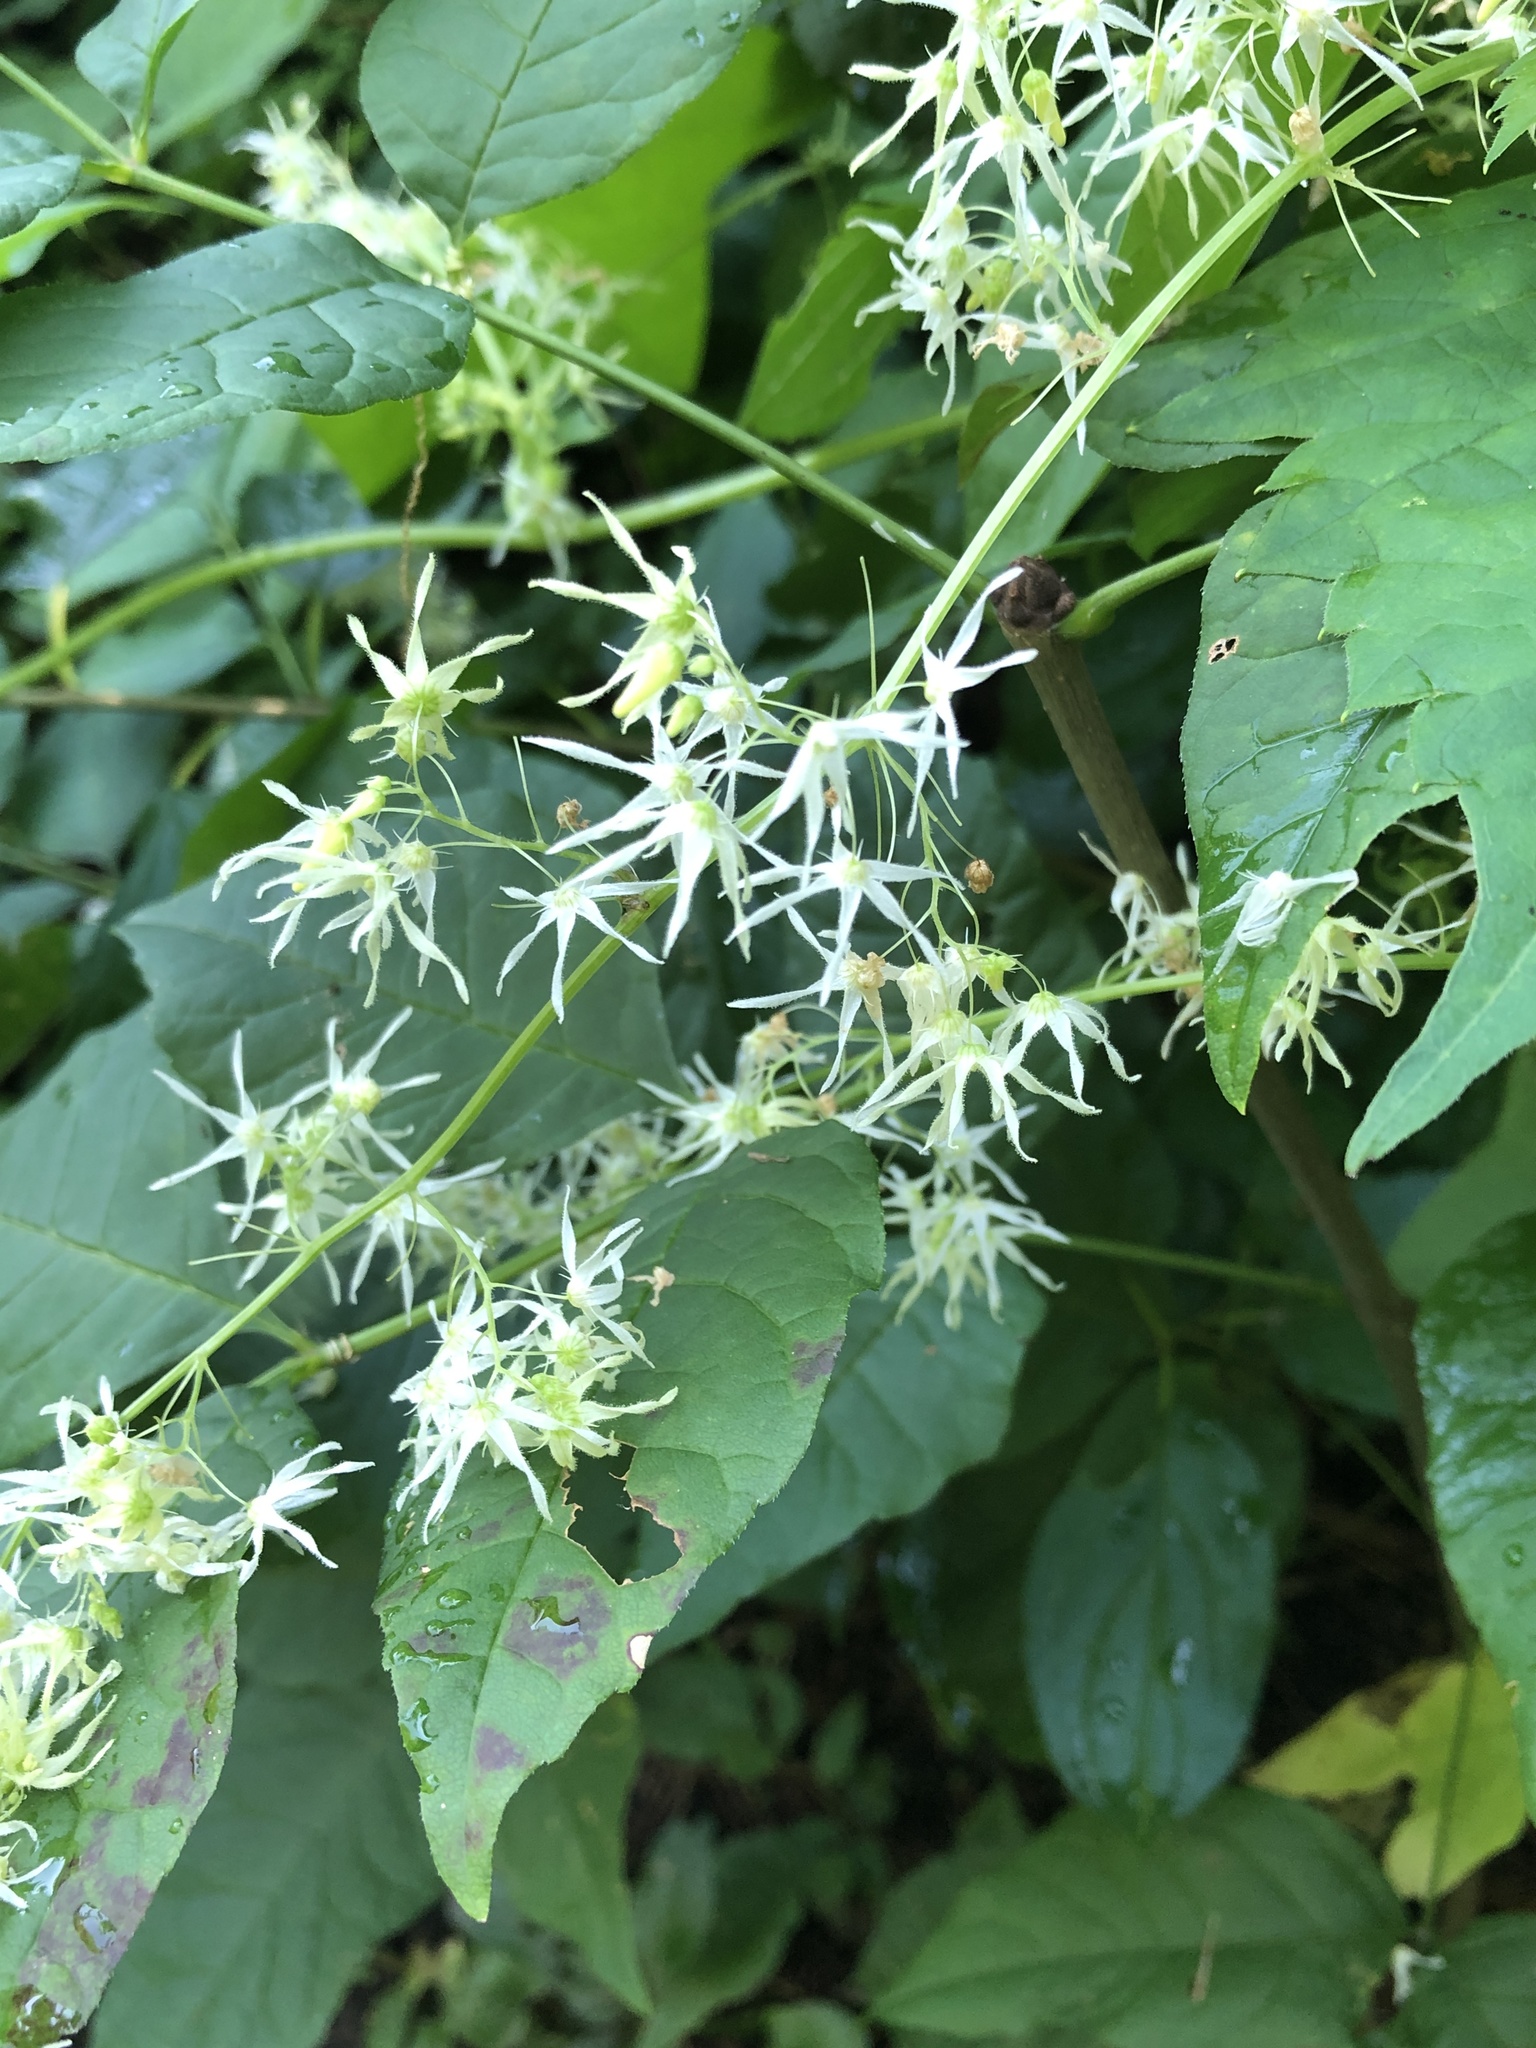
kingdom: Plantae
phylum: Tracheophyta
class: Magnoliopsida
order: Cucurbitales
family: Cucurbitaceae
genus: Echinocystis
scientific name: Echinocystis lobata
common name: Wild cucumber
